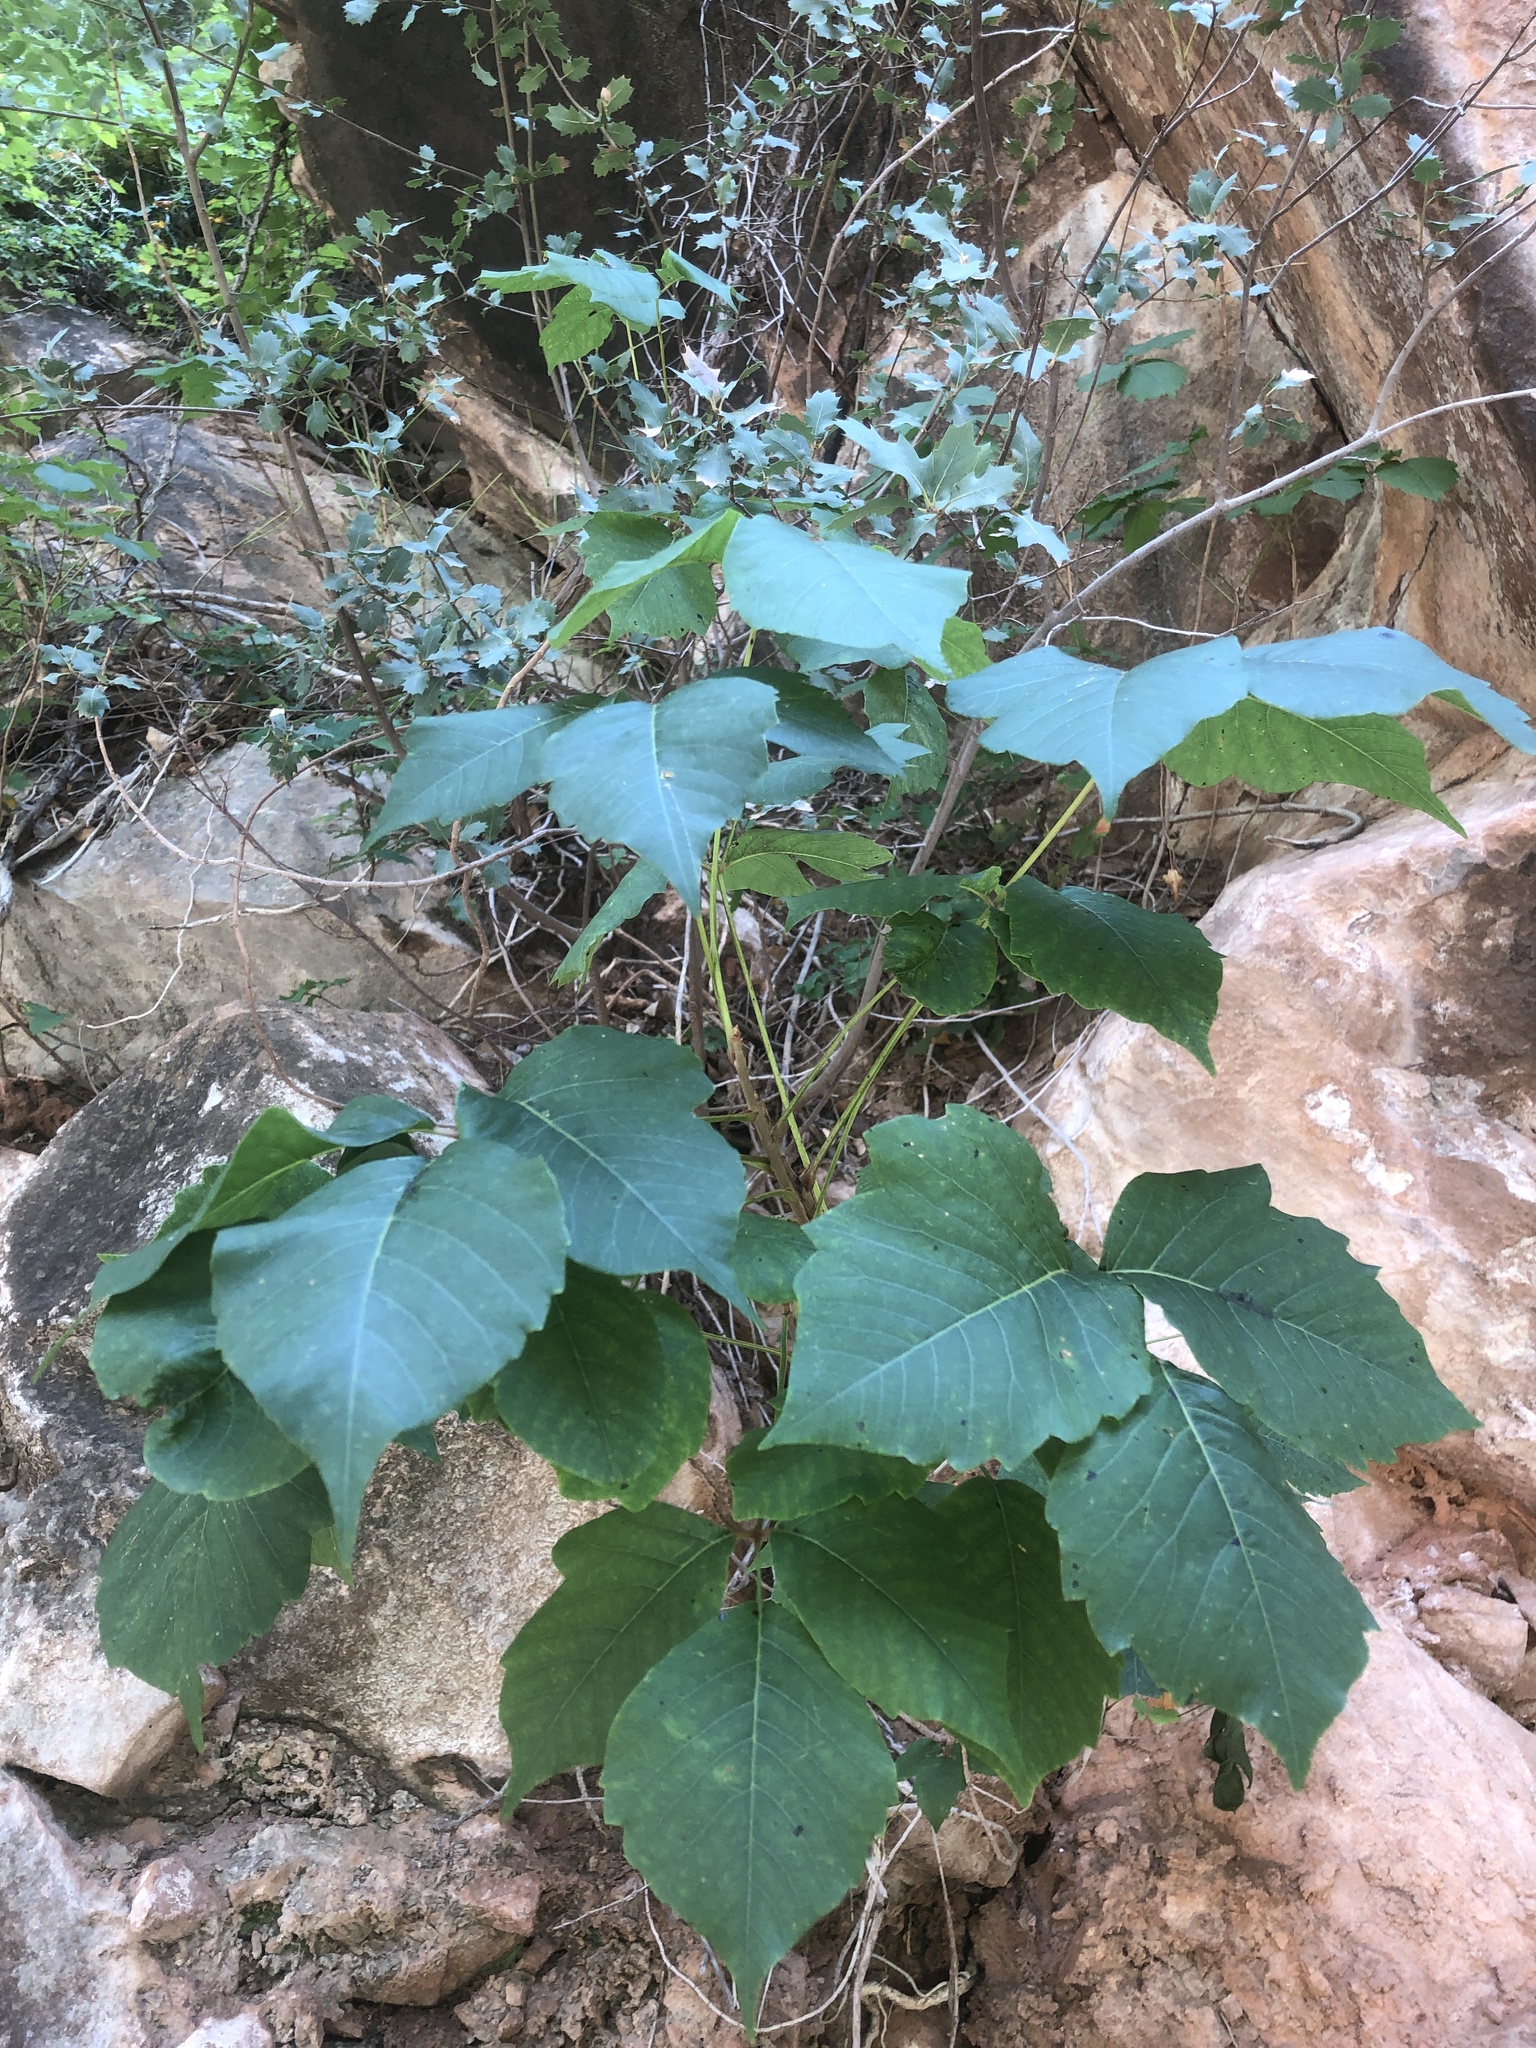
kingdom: Plantae
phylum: Tracheophyta
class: Magnoliopsida
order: Sapindales
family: Anacardiaceae
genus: Toxicodendron
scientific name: Toxicodendron rydbergii
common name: Rydberg's poison-ivy
